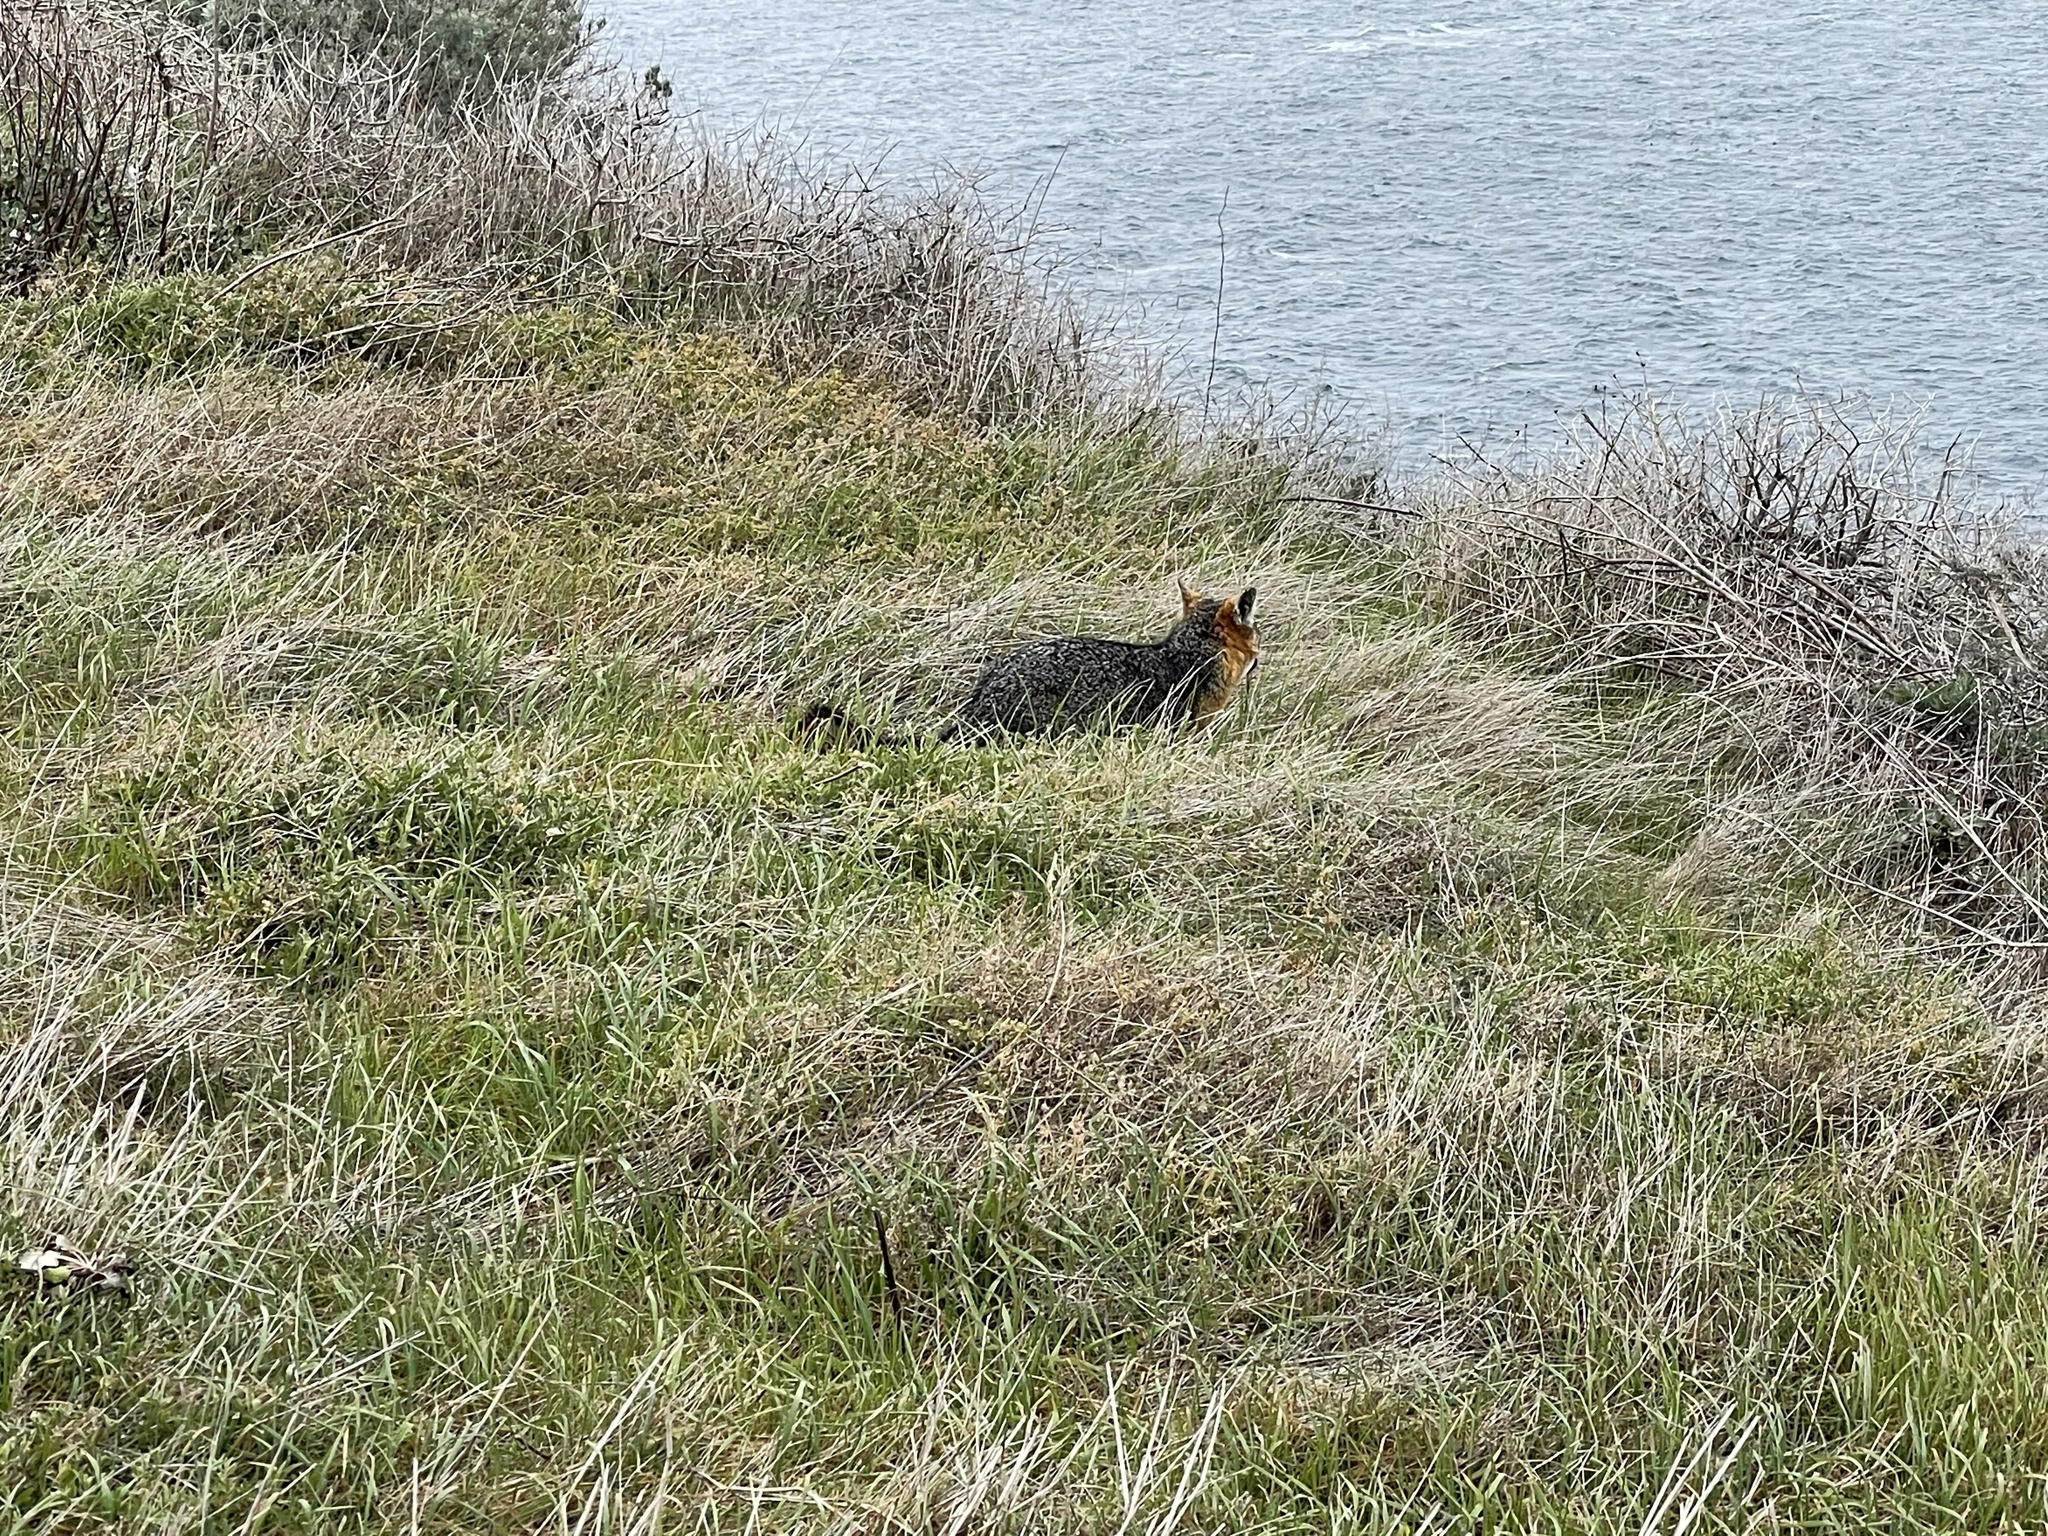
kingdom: Animalia
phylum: Chordata
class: Mammalia
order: Carnivora
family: Canidae
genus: Urocyon
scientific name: Urocyon littoralis
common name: Island gray fox
